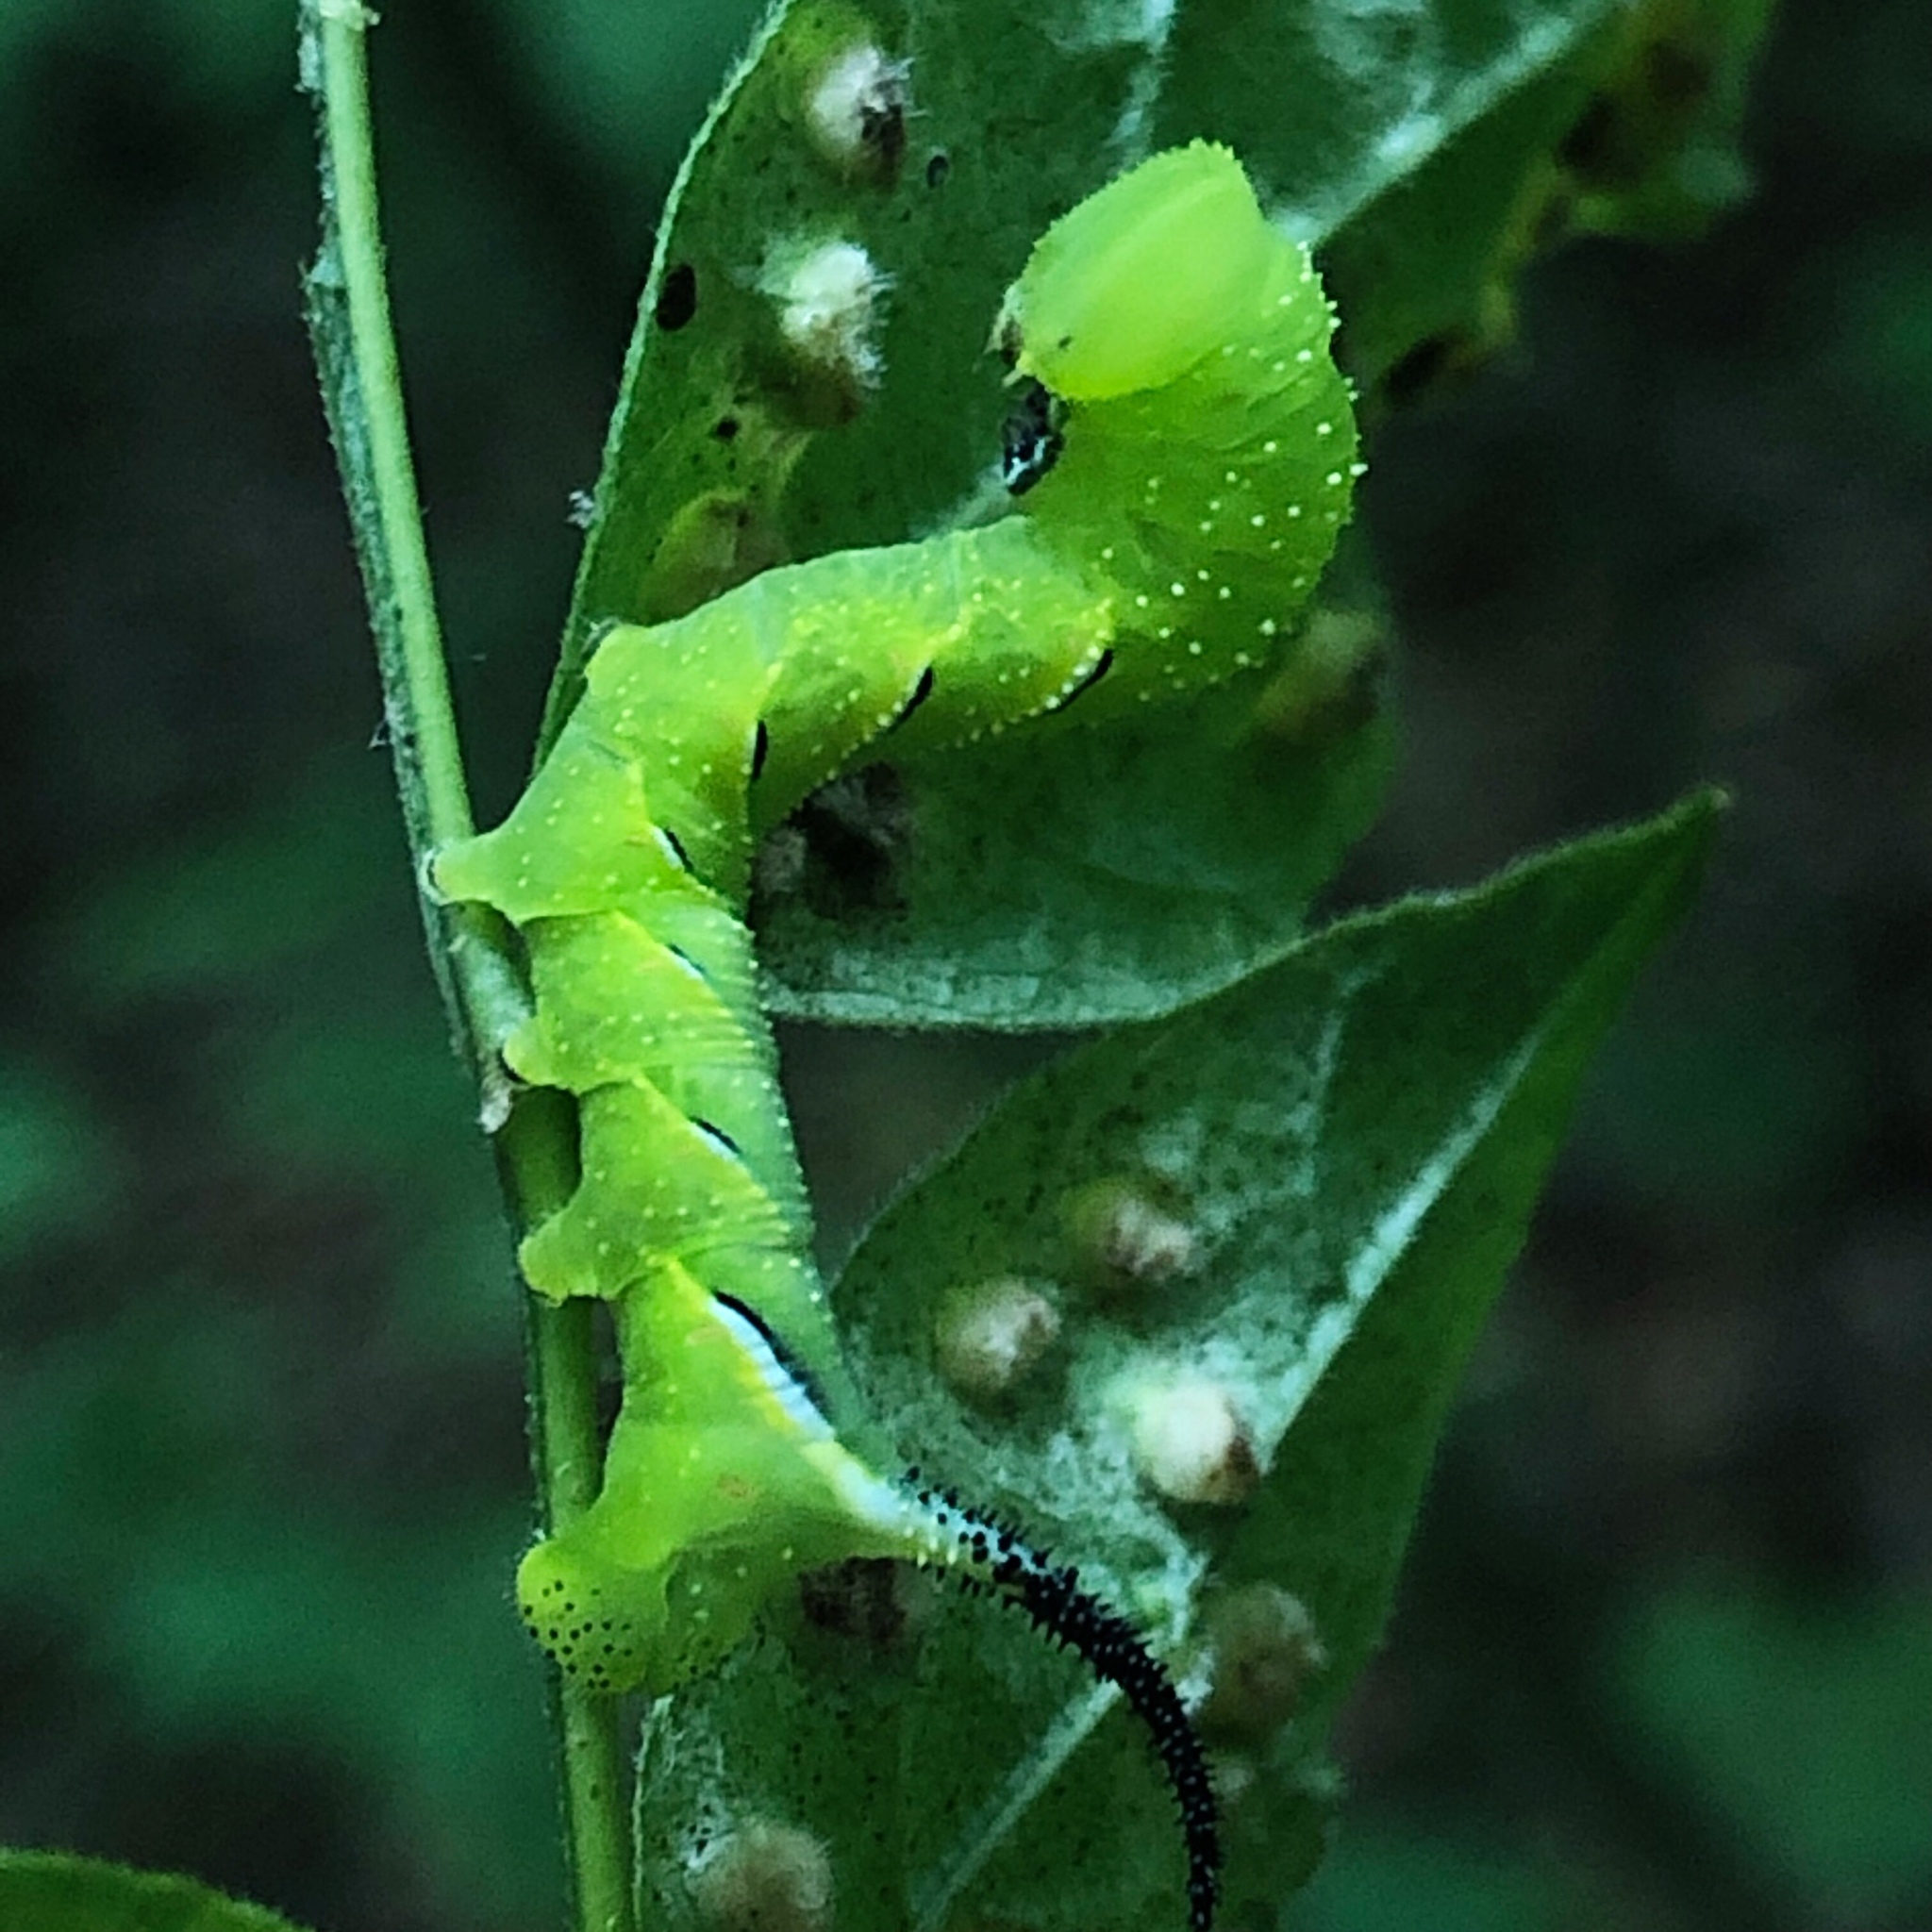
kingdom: Animalia
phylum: Arthropoda
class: Insecta
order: Lepidoptera
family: Sphingidae
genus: Sphinx
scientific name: Sphinx kalmiae
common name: Laurel sphinx
